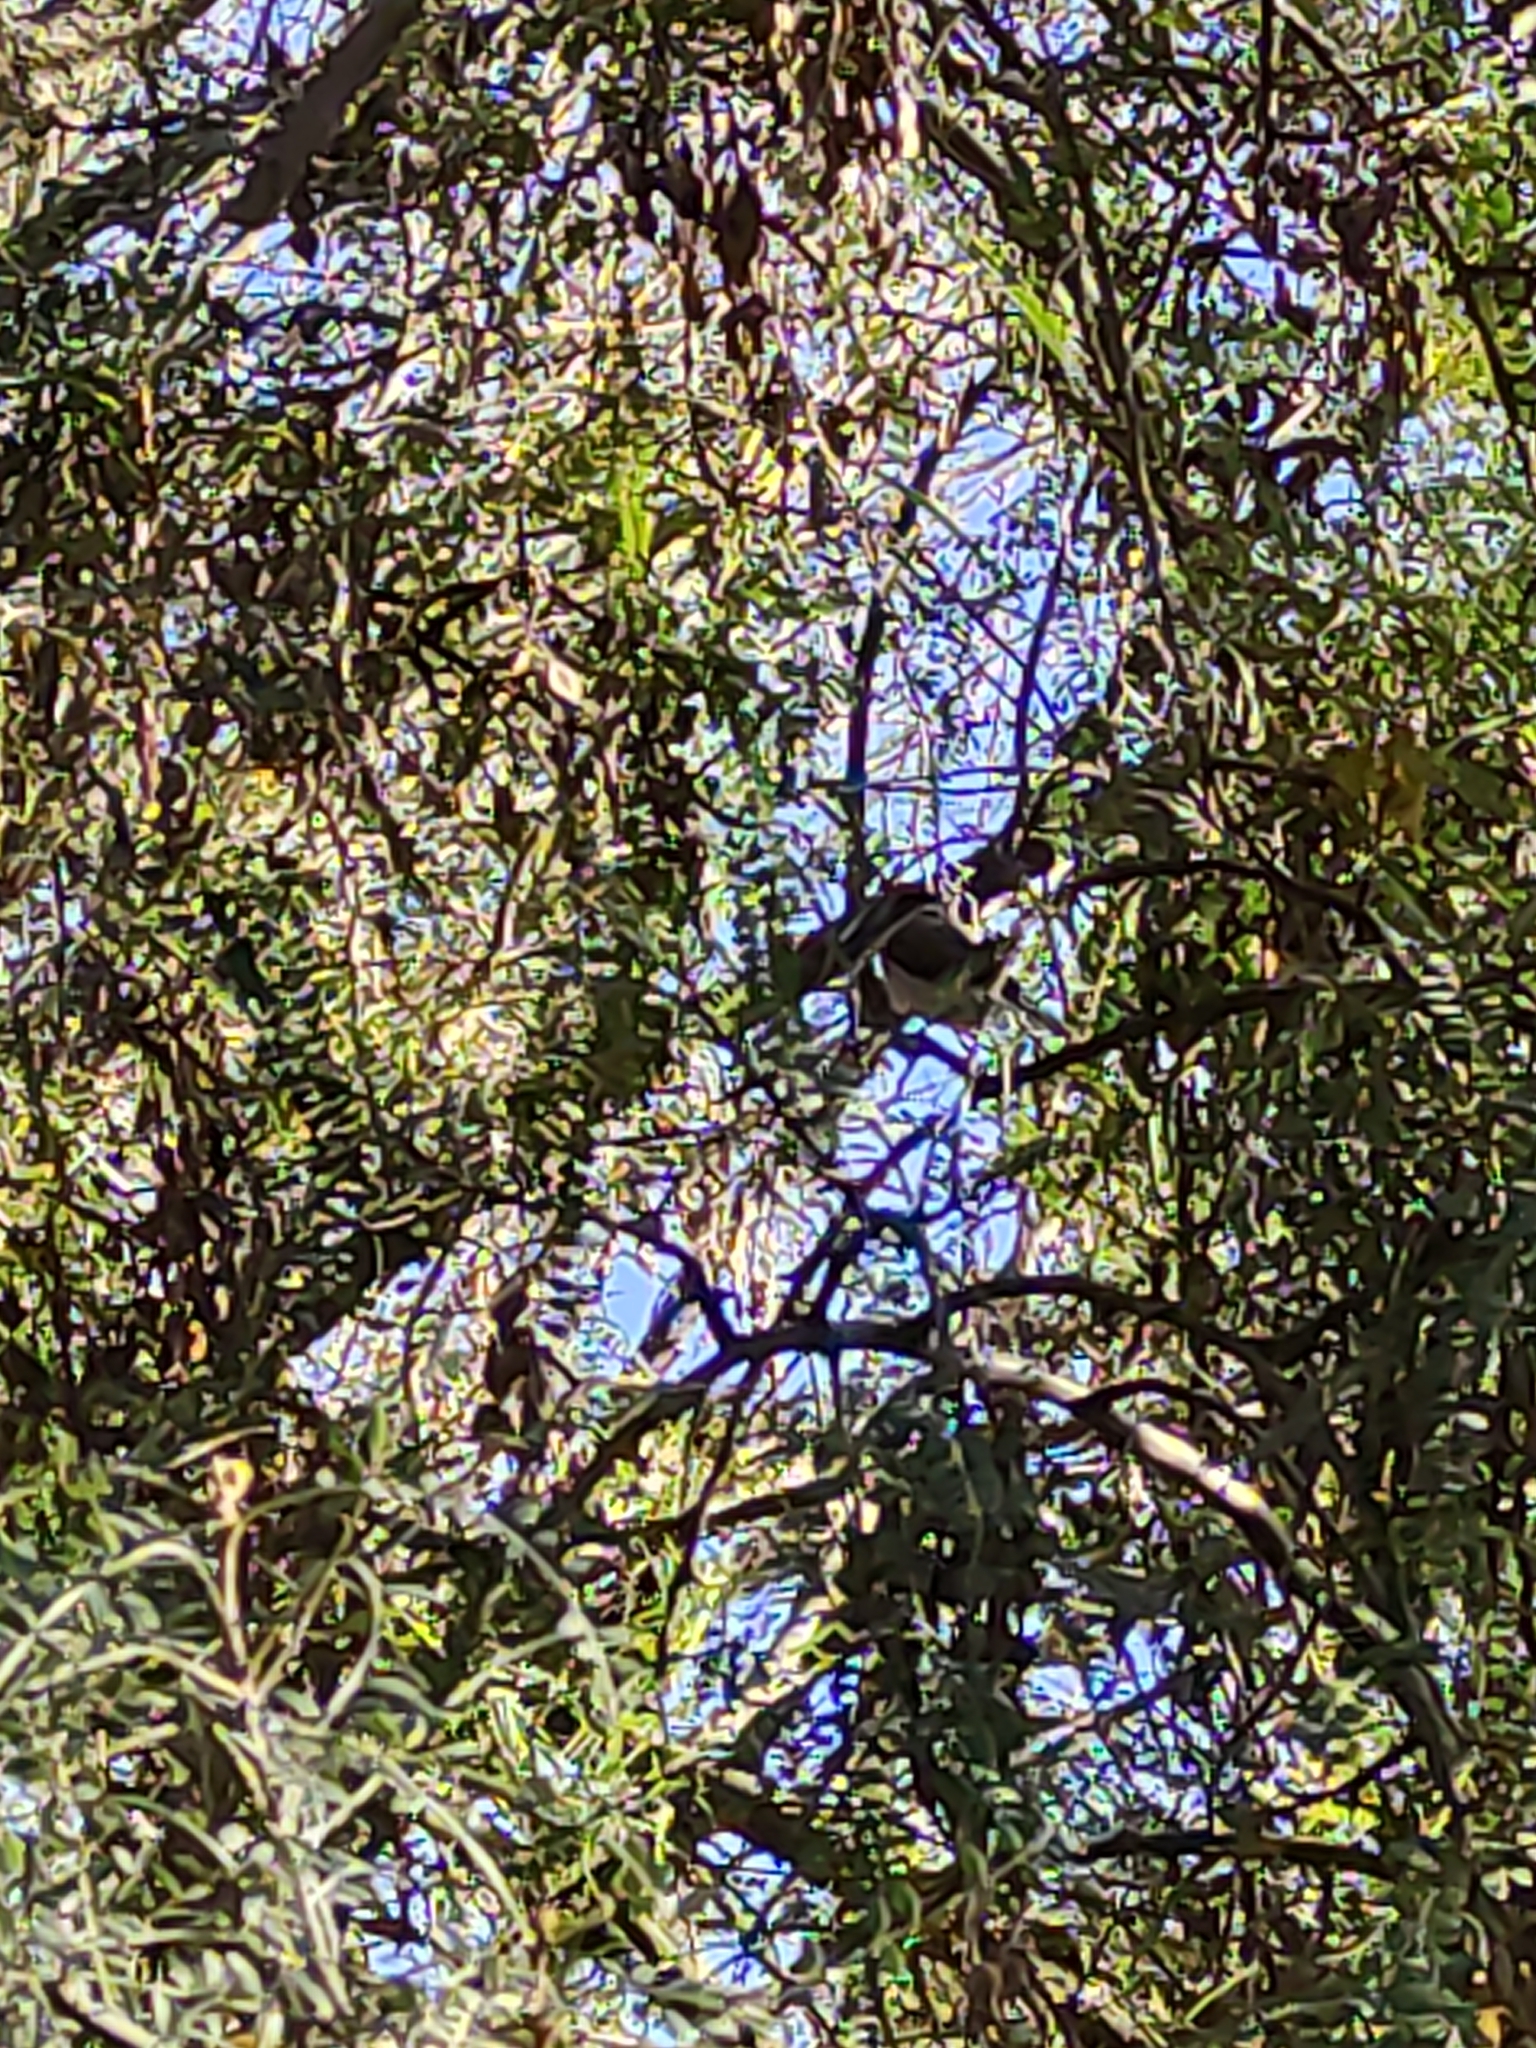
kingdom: Plantae
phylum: Tracheophyta
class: Magnoliopsida
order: Fabales
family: Fabaceae
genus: Sophora
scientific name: Sophora microphylla
